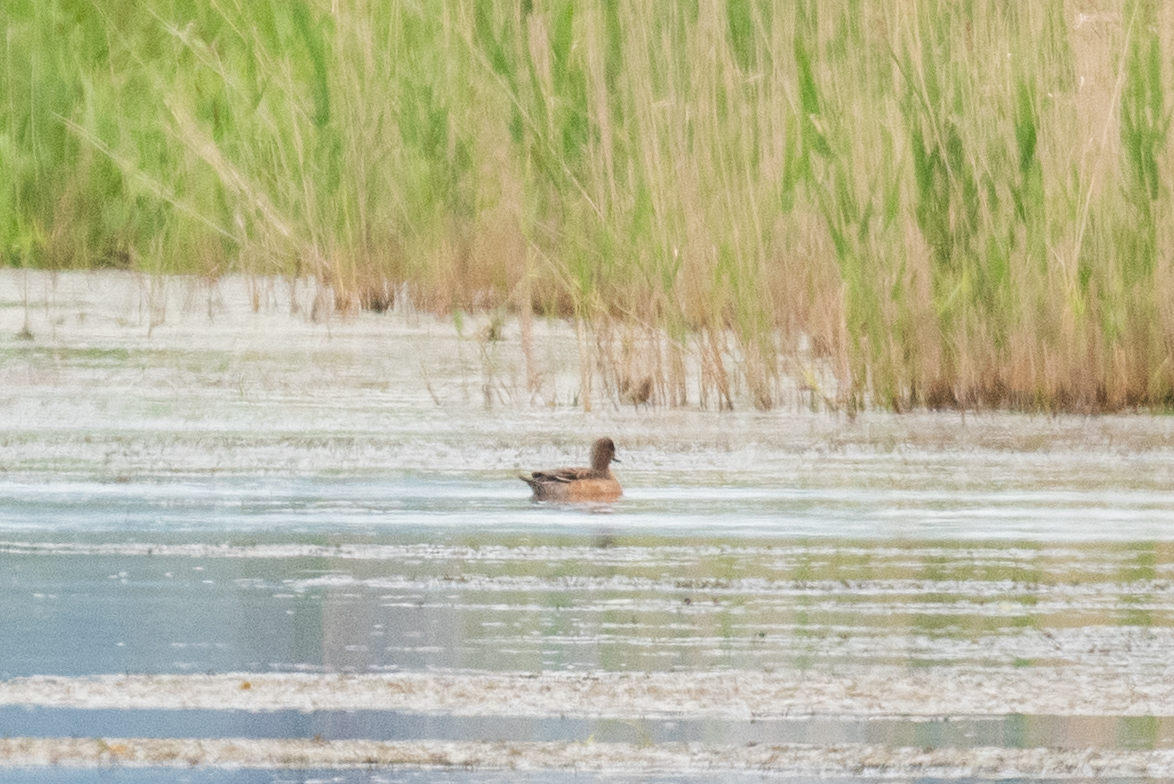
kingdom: Animalia
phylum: Chordata
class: Aves
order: Anseriformes
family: Anatidae
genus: Mareca
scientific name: Mareca penelope
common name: Eurasian wigeon
